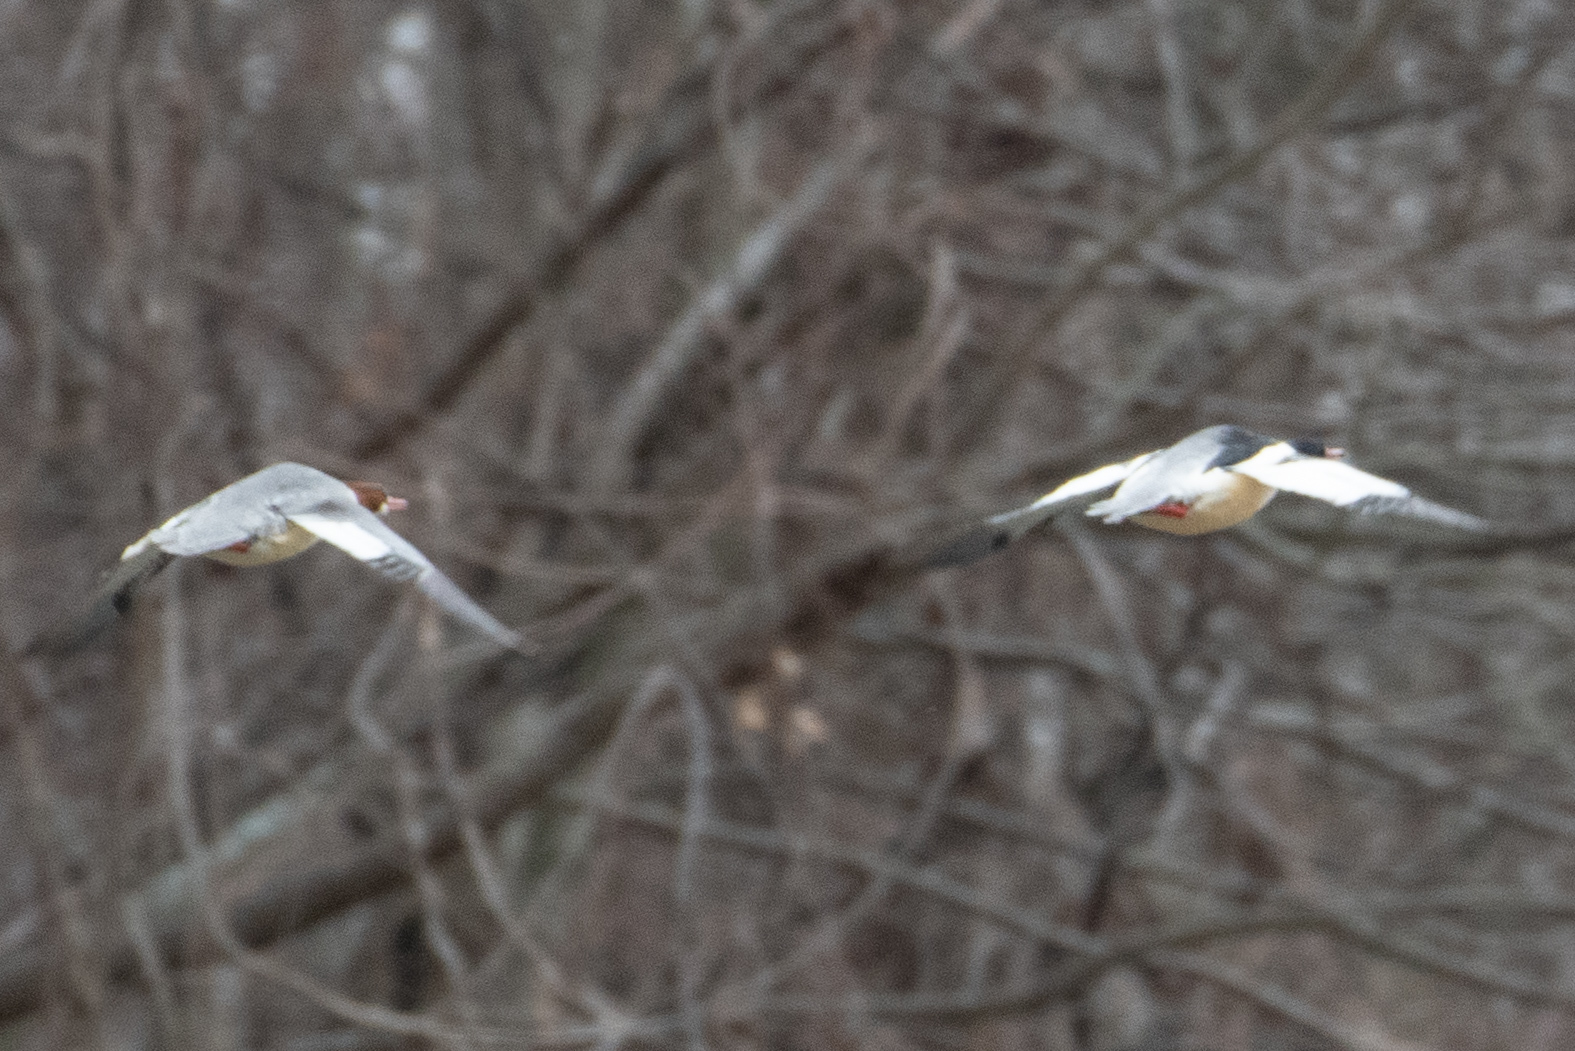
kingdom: Animalia
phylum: Chordata
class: Aves
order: Anseriformes
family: Anatidae
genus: Mergus
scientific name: Mergus merganser
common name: Common merganser
